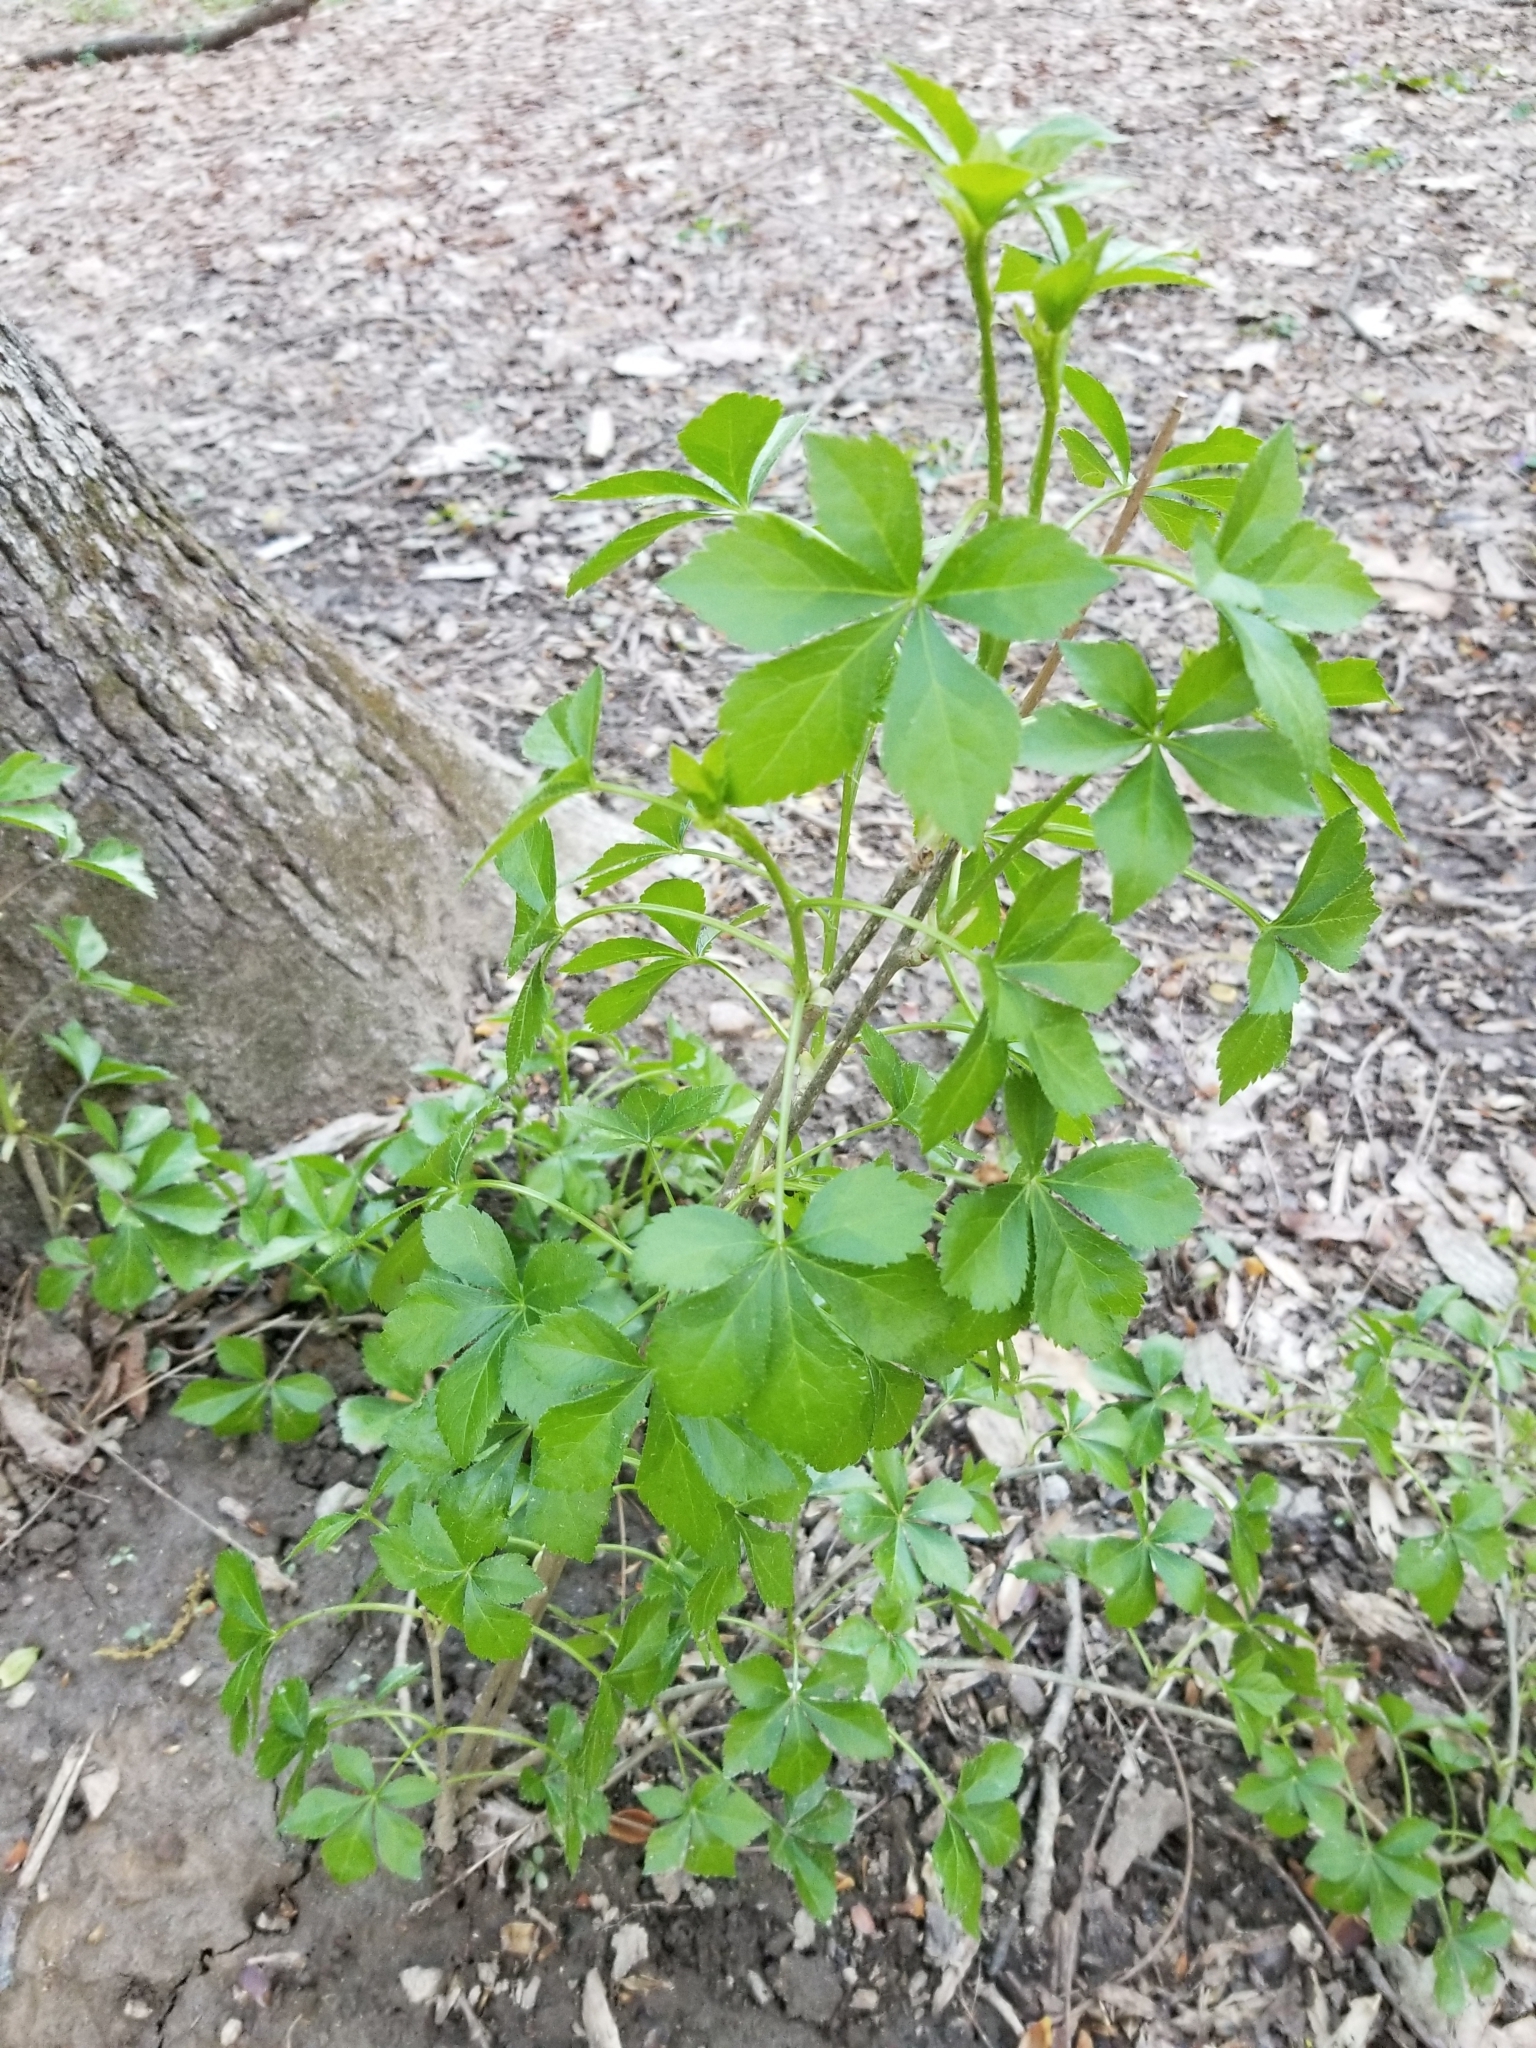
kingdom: Plantae
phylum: Tracheophyta
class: Magnoliopsida
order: Apiales
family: Araliaceae
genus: Eleutherococcus
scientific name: Eleutherococcus sieboldianus
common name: Ginseng
